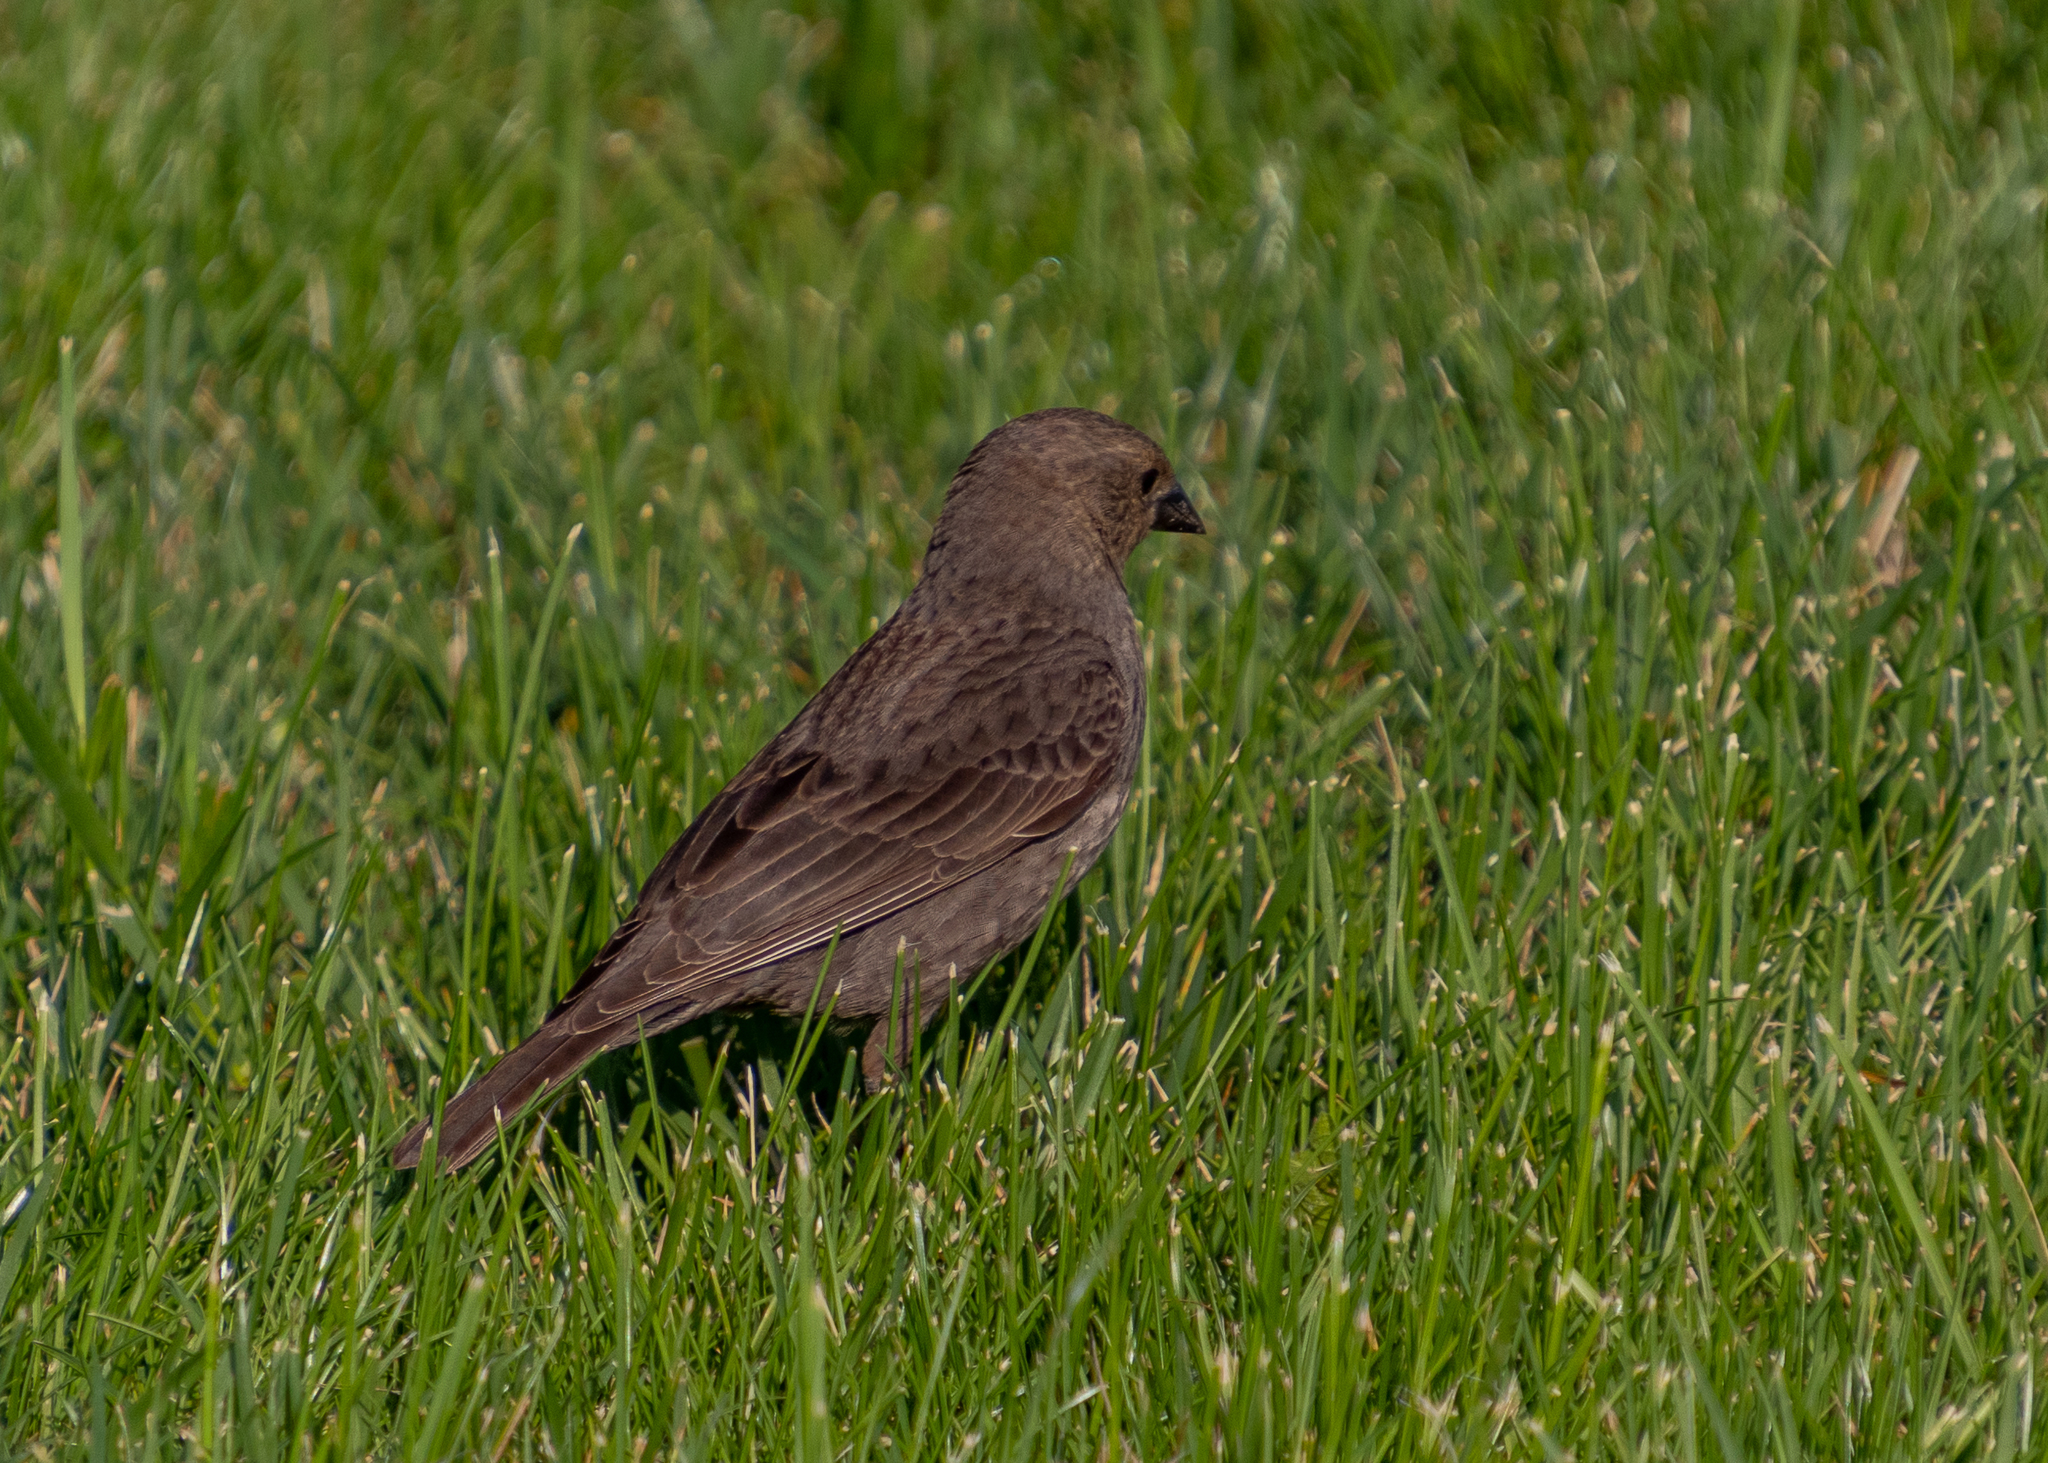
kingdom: Animalia
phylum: Chordata
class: Aves
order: Passeriformes
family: Icteridae
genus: Molothrus
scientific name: Molothrus ater
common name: Brown-headed cowbird
